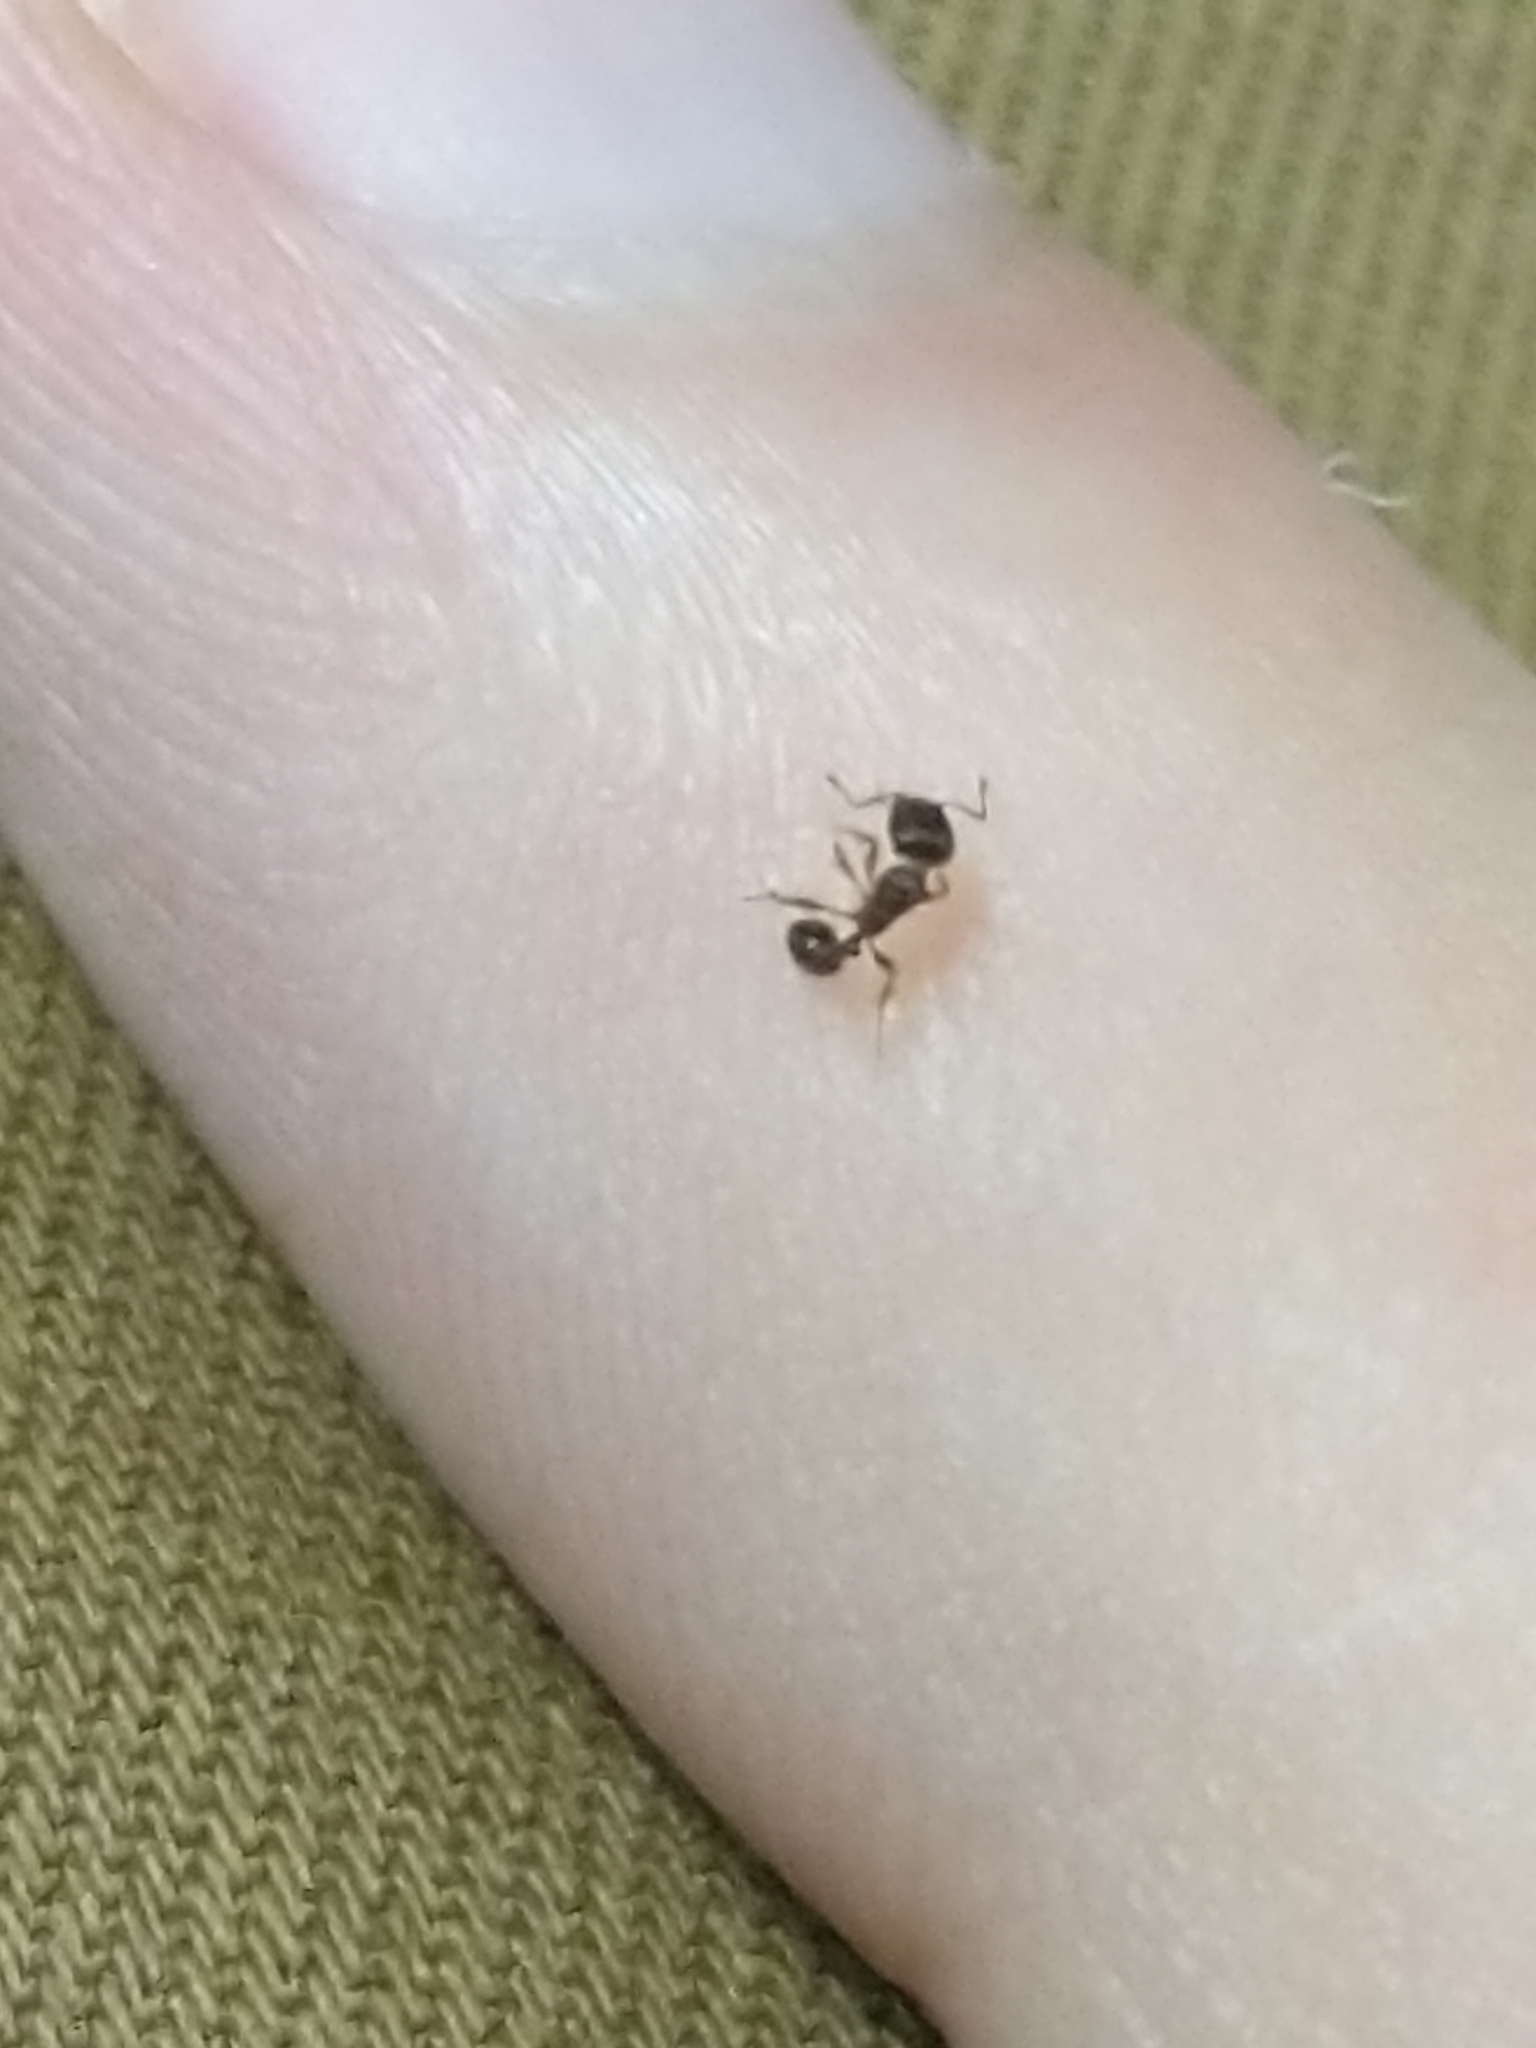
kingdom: Animalia
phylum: Arthropoda
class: Insecta
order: Hymenoptera
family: Formicidae
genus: Tetramorium
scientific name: Tetramorium
